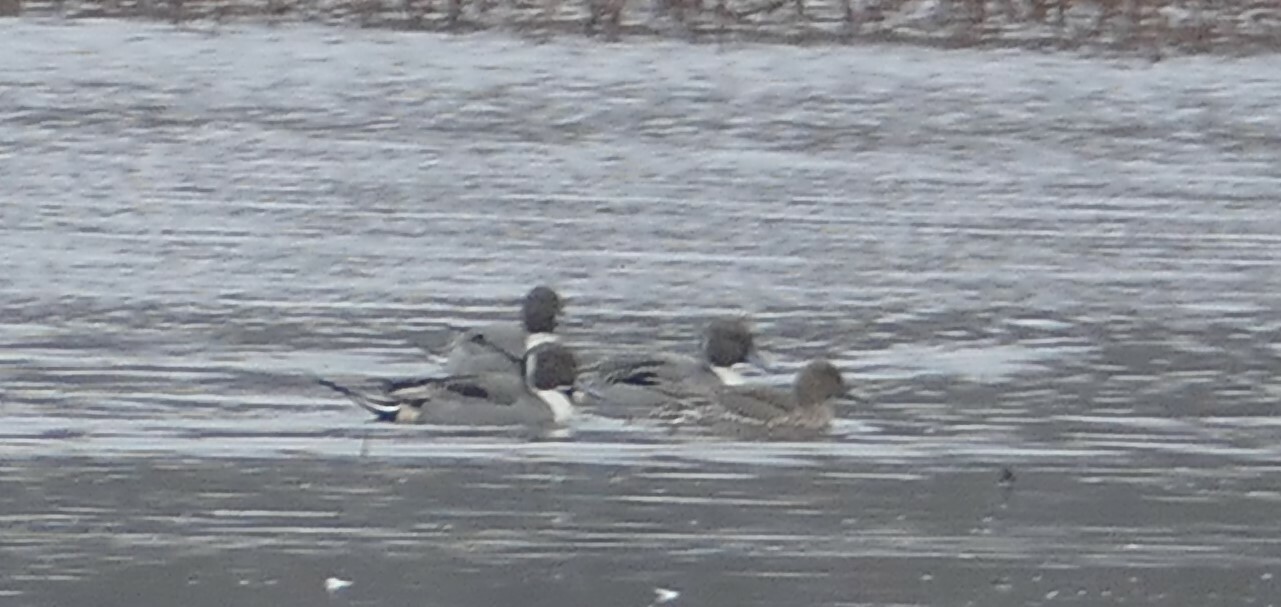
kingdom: Animalia
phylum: Chordata
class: Aves
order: Anseriformes
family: Anatidae
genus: Anas
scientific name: Anas acuta
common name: Northern pintail
